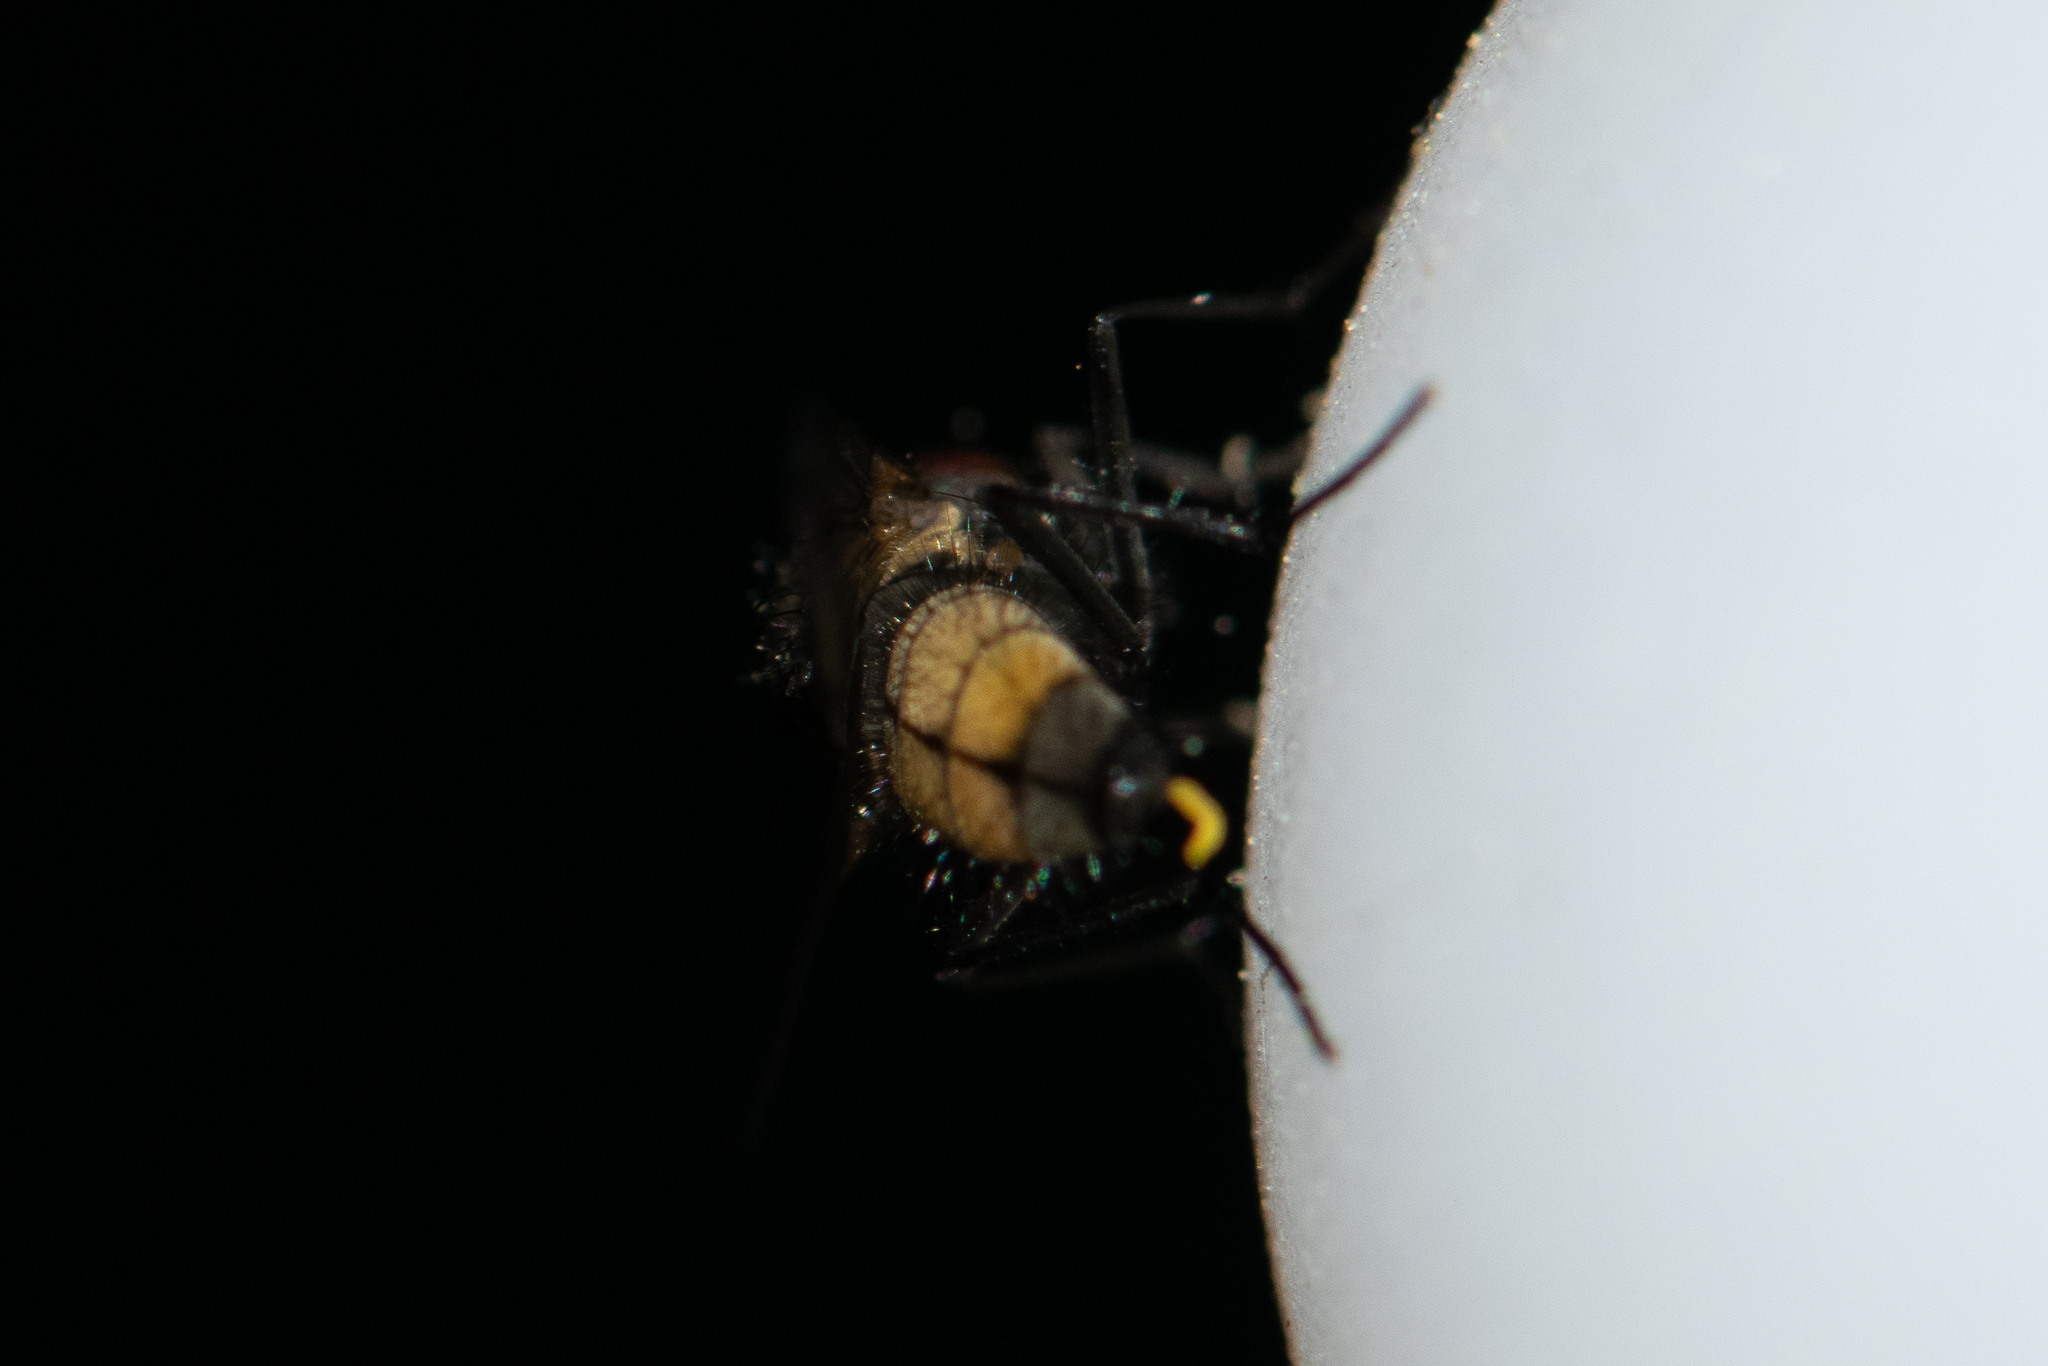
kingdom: Animalia
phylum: Arthropoda
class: Insecta
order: Diptera
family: Muscidae
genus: Thricops
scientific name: Thricops semicinereus
